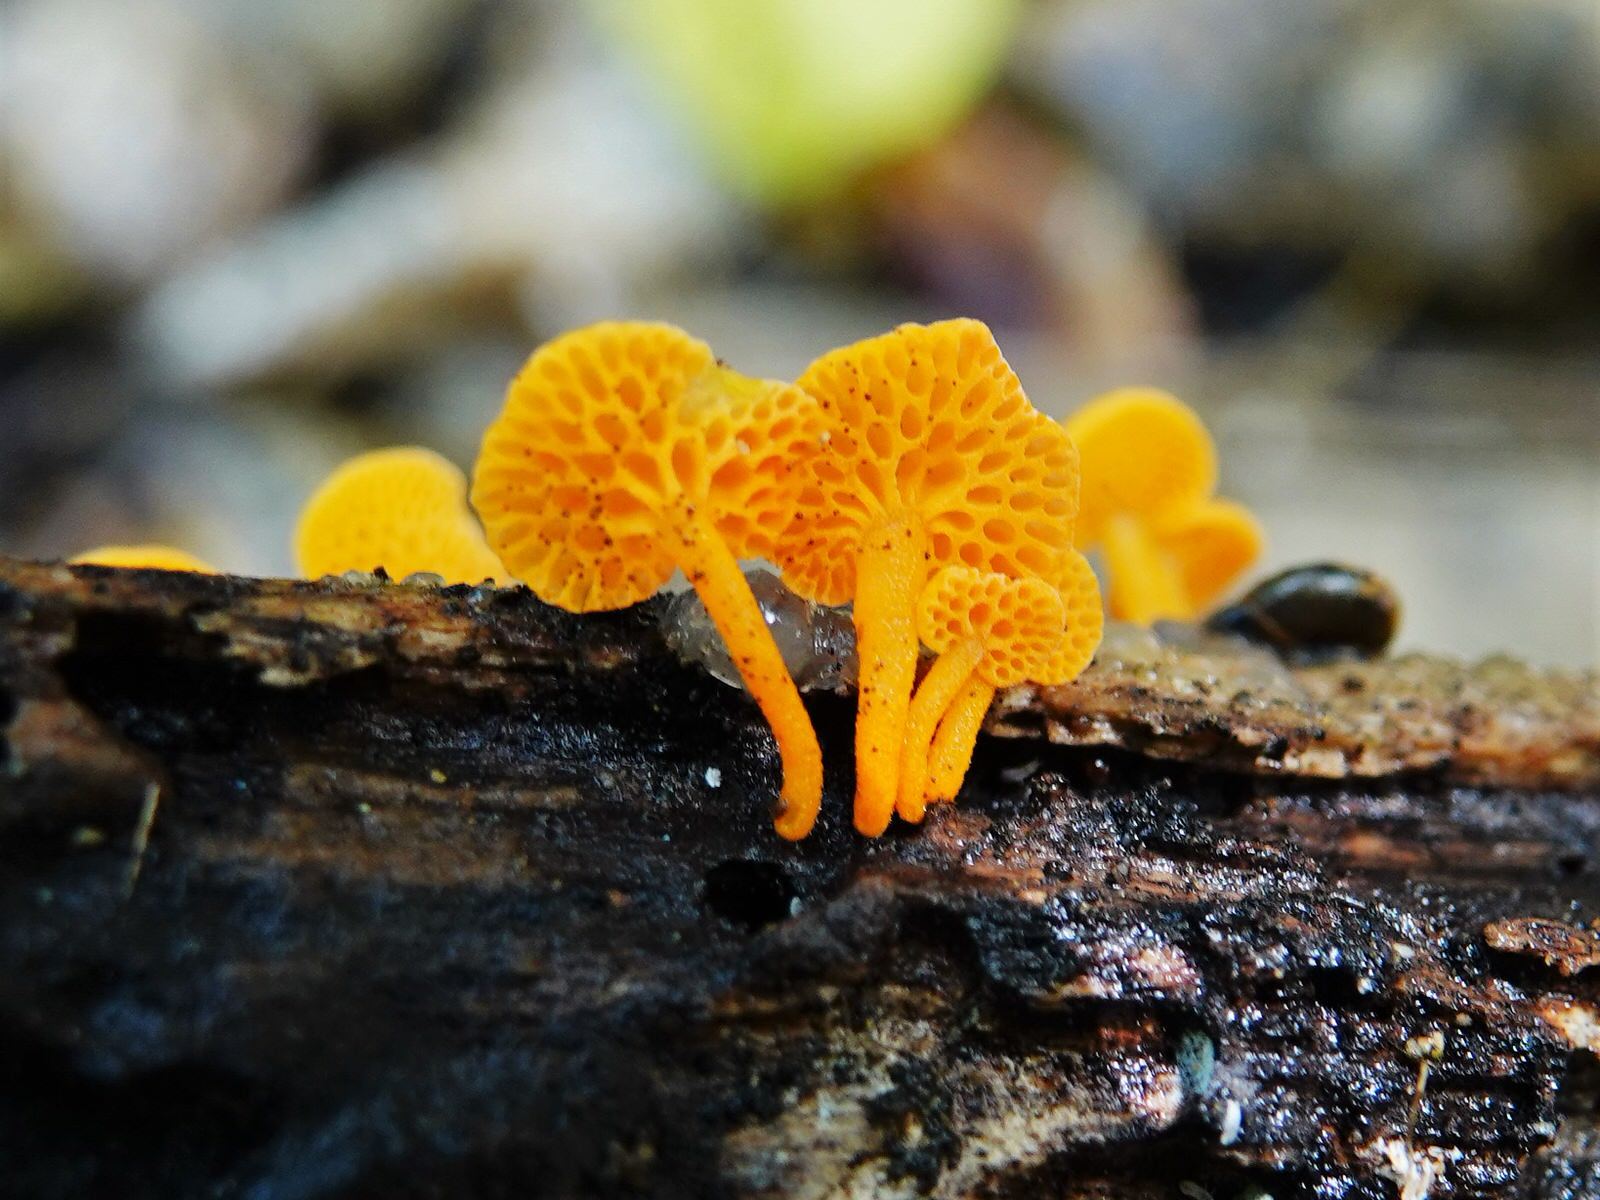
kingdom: Fungi
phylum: Basidiomycota
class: Agaricomycetes
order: Agaricales
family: Mycenaceae
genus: Favolaschia
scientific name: Favolaschia claudopus
